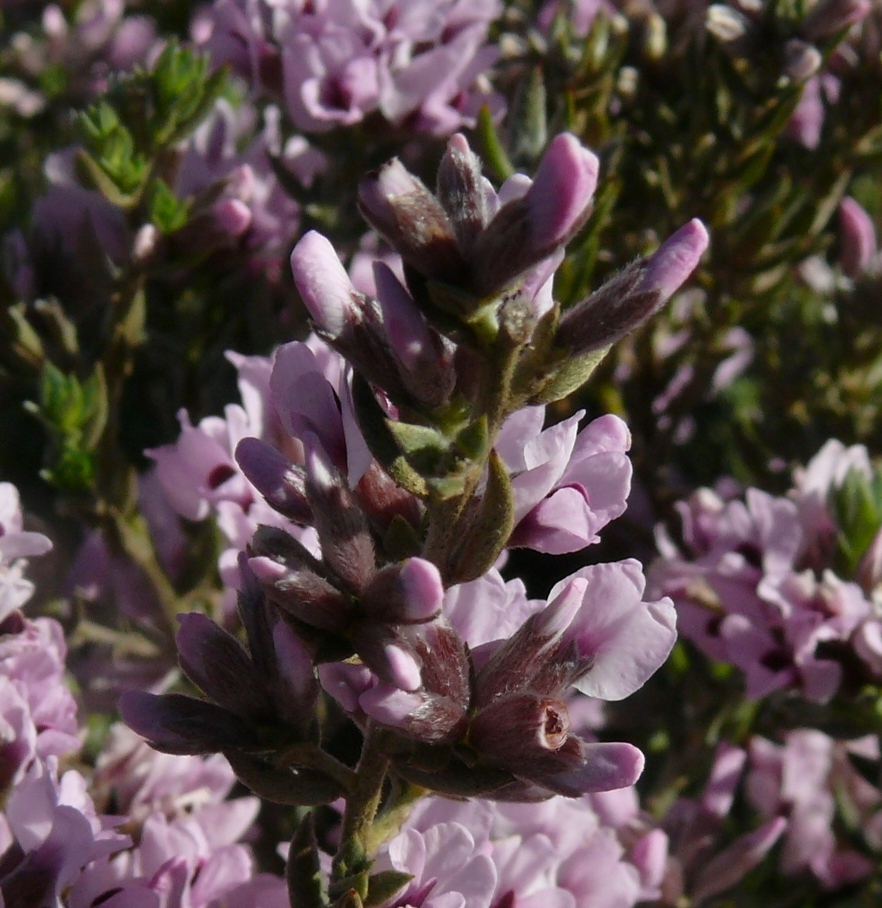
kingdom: Plantae
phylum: Tracheophyta
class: Magnoliopsida
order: Fabales
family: Fabaceae
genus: Amphithalea
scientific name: Amphithalea ericifolia
